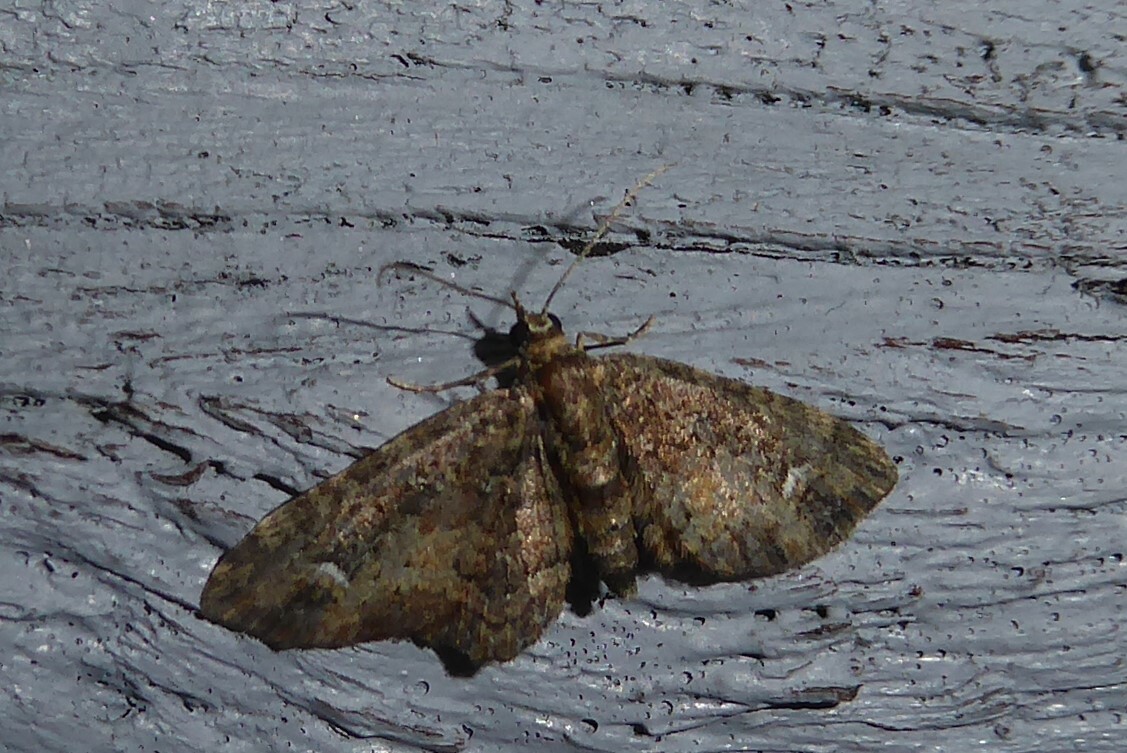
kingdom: Animalia
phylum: Arthropoda
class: Insecta
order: Lepidoptera
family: Geometridae
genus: Pasiphilodes
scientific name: Pasiphilodes testulata
